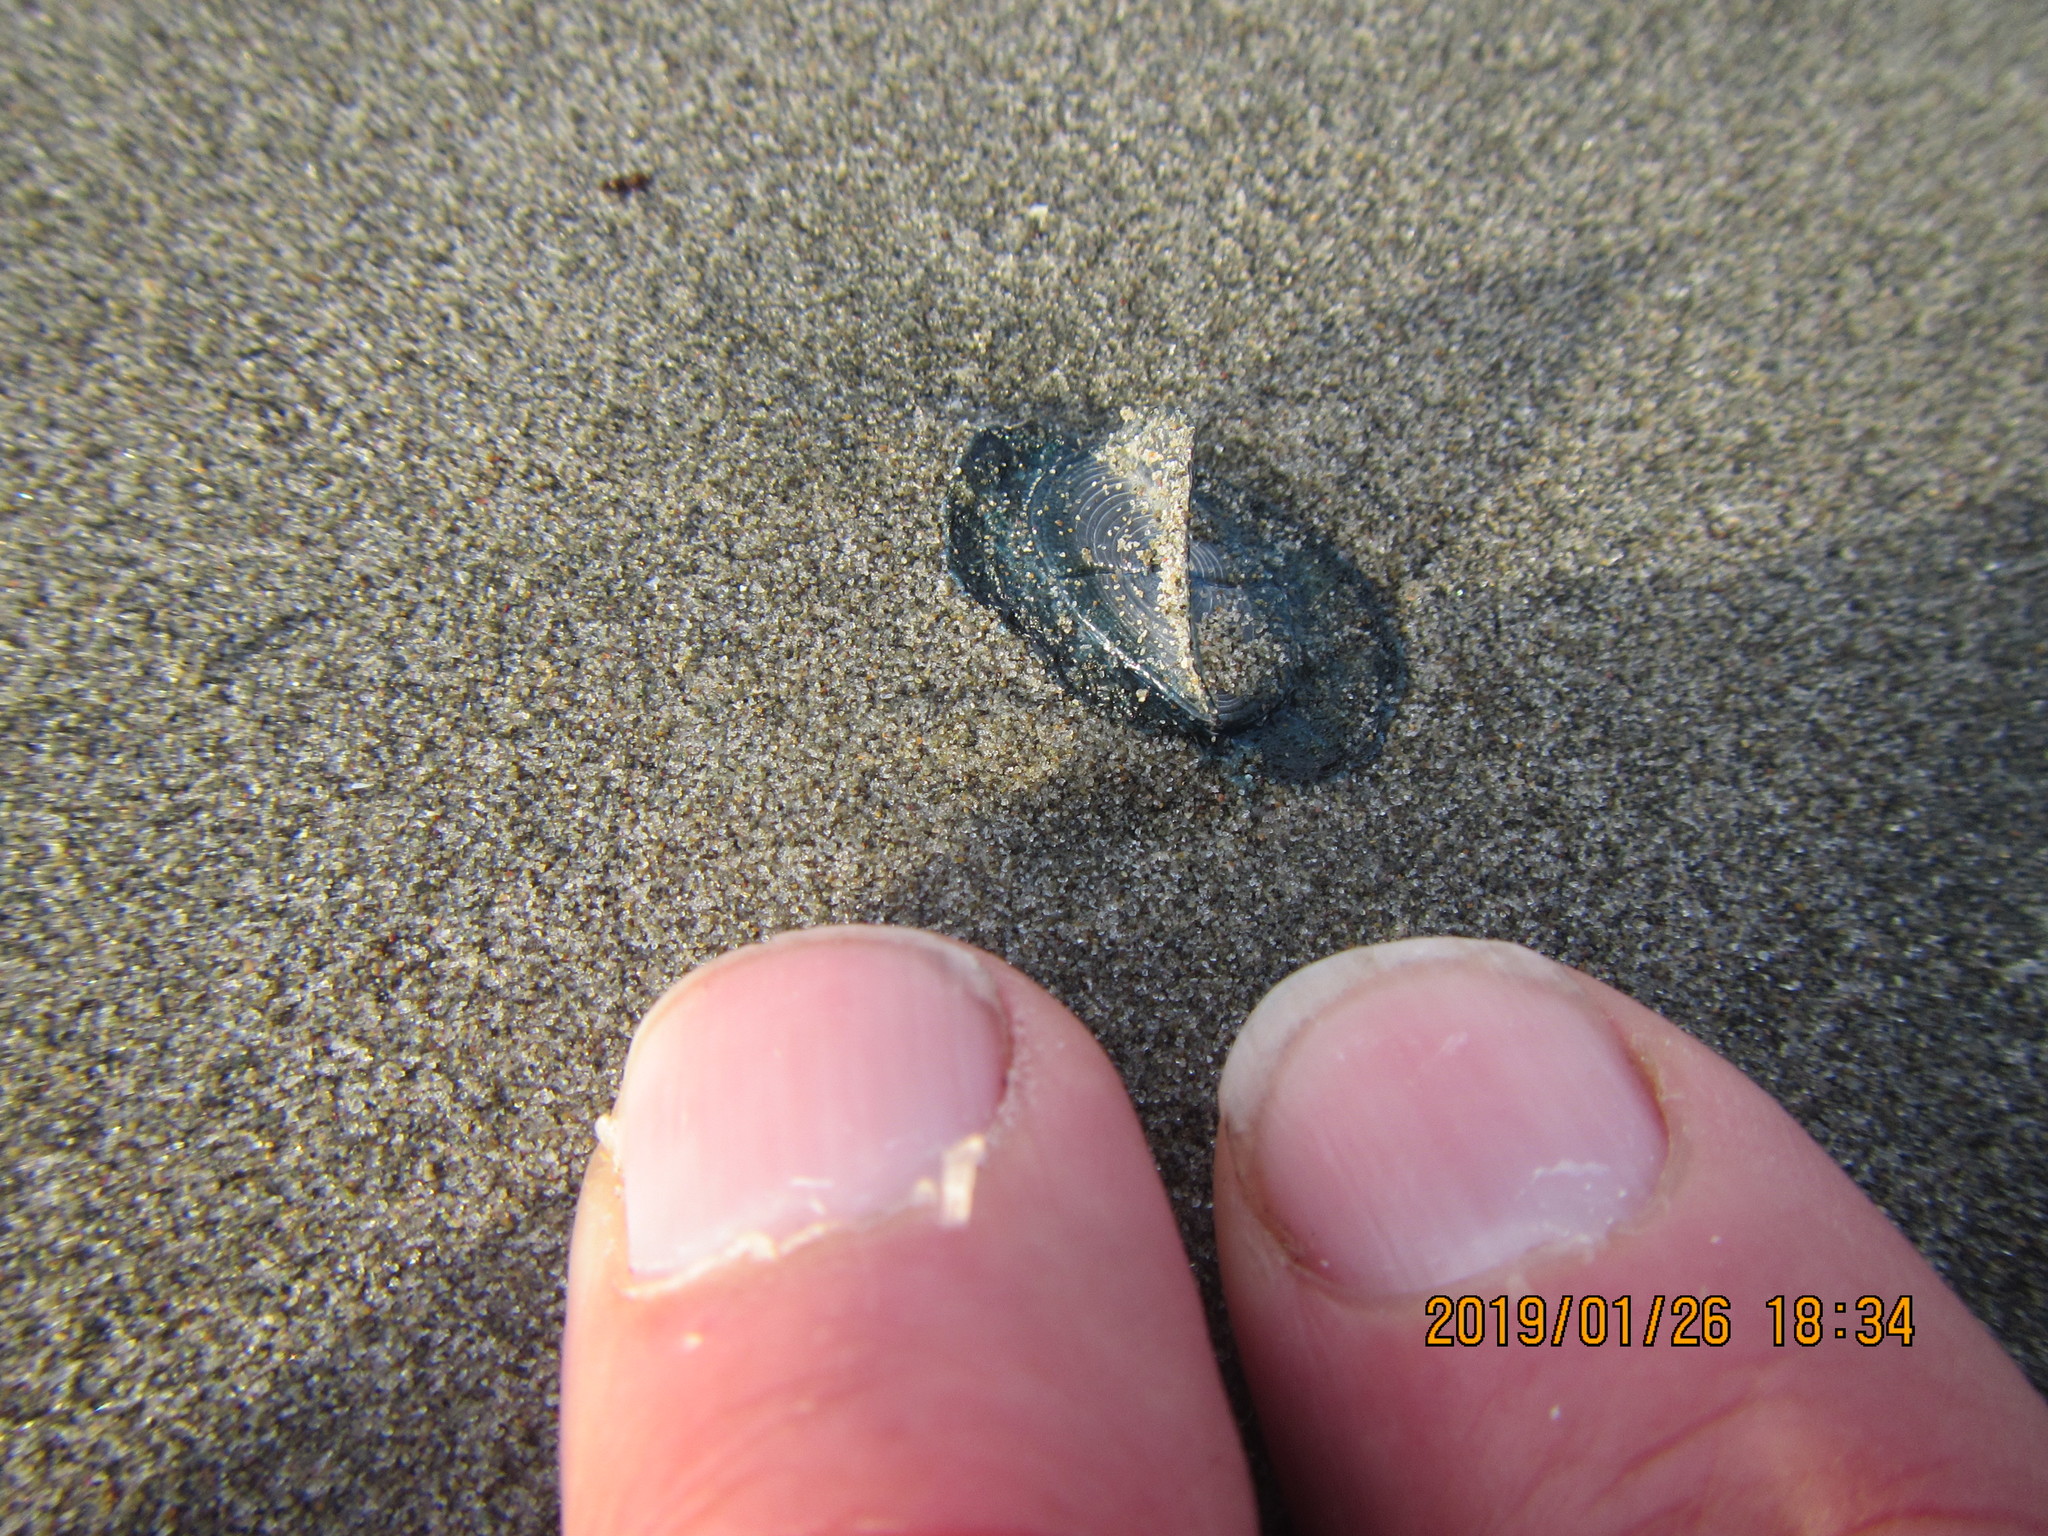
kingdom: Animalia
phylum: Cnidaria
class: Hydrozoa
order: Anthoathecata
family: Porpitidae
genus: Velella
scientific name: Velella velella
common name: By-the-wind-sailor
